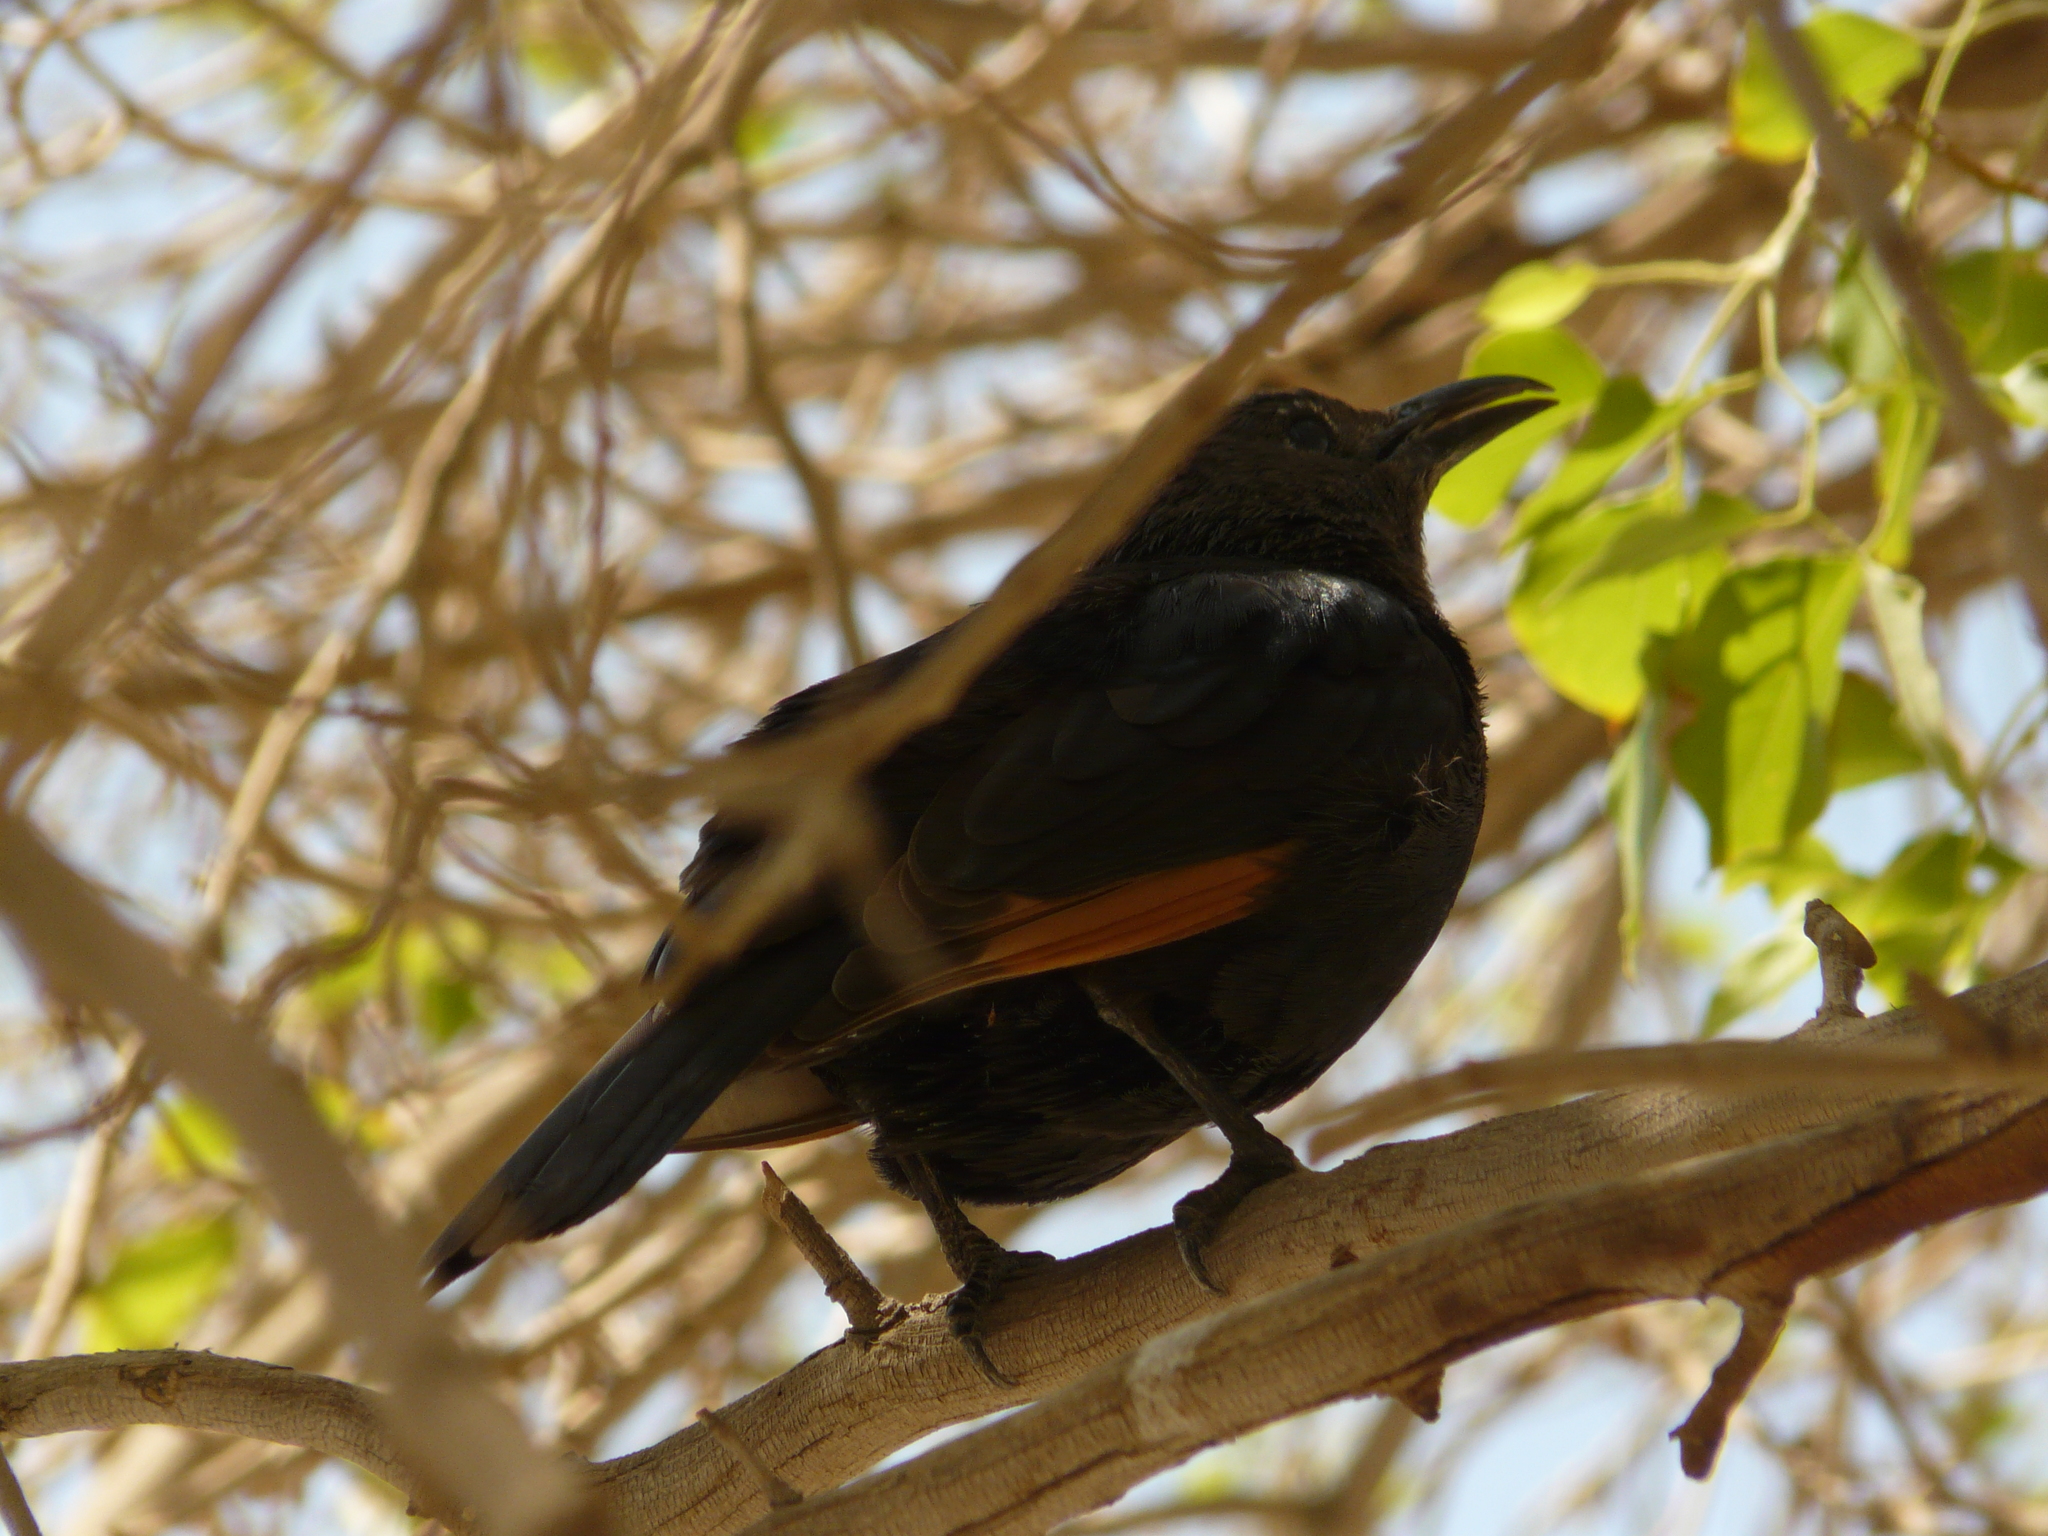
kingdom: Animalia
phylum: Chordata
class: Aves
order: Passeriformes
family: Sturnidae
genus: Onychognathus
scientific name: Onychognathus tristramii
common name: Tristram's starling
